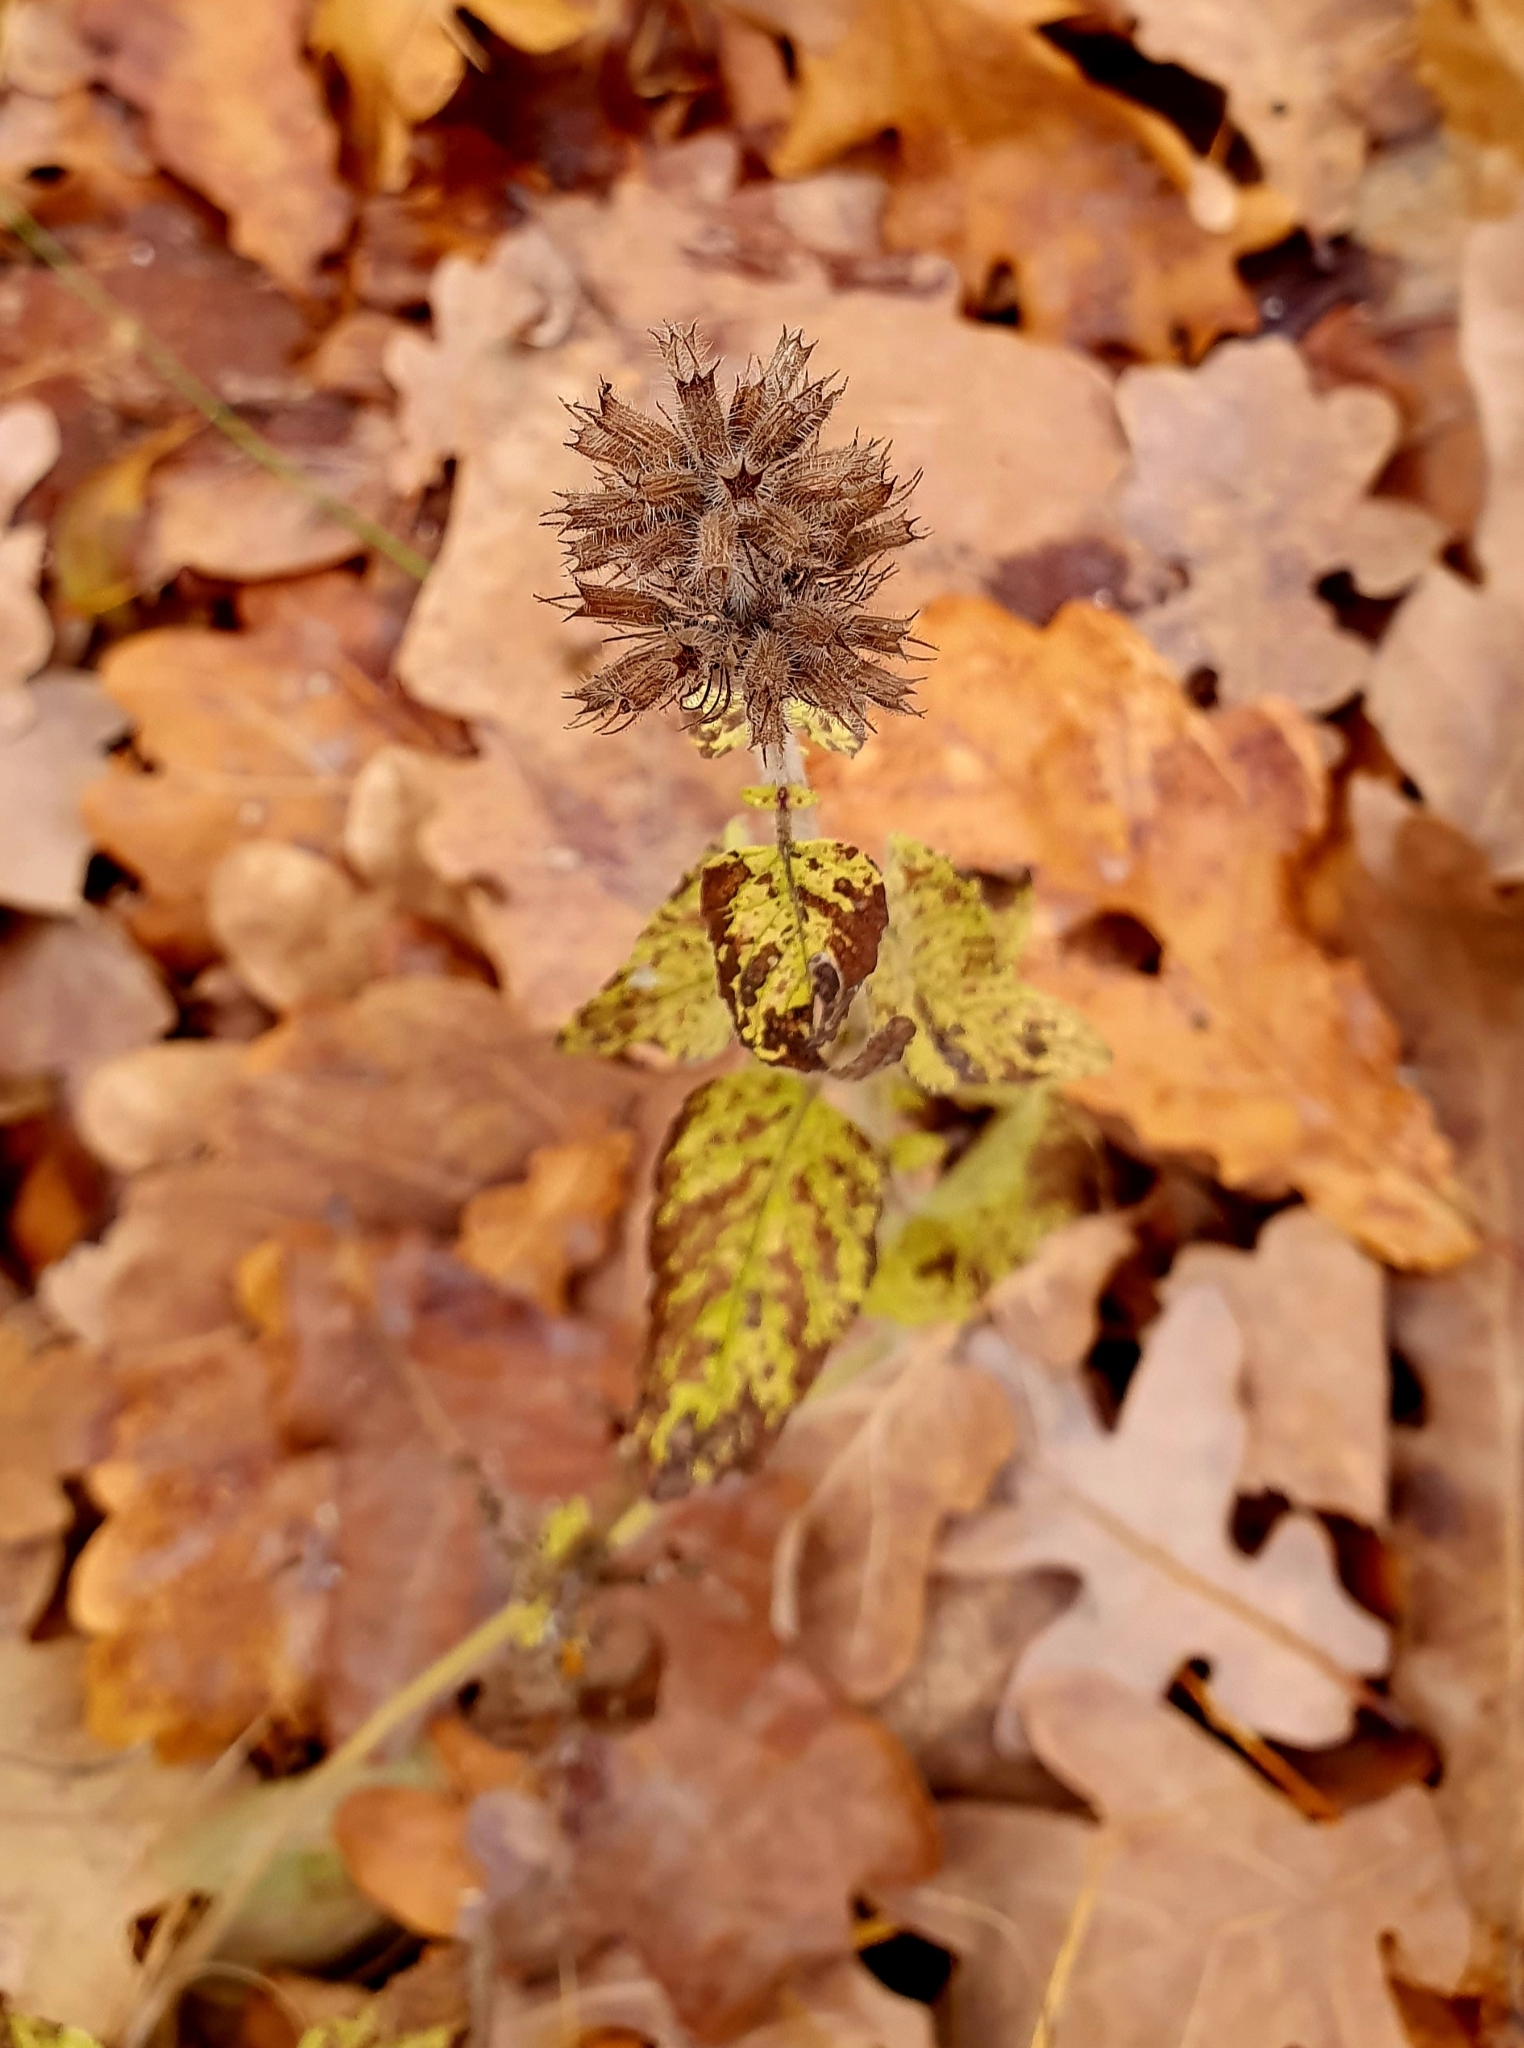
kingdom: Plantae
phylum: Tracheophyta
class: Magnoliopsida
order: Lamiales
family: Lamiaceae
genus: Clinopodium
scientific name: Clinopodium vulgare
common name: Wild basil
